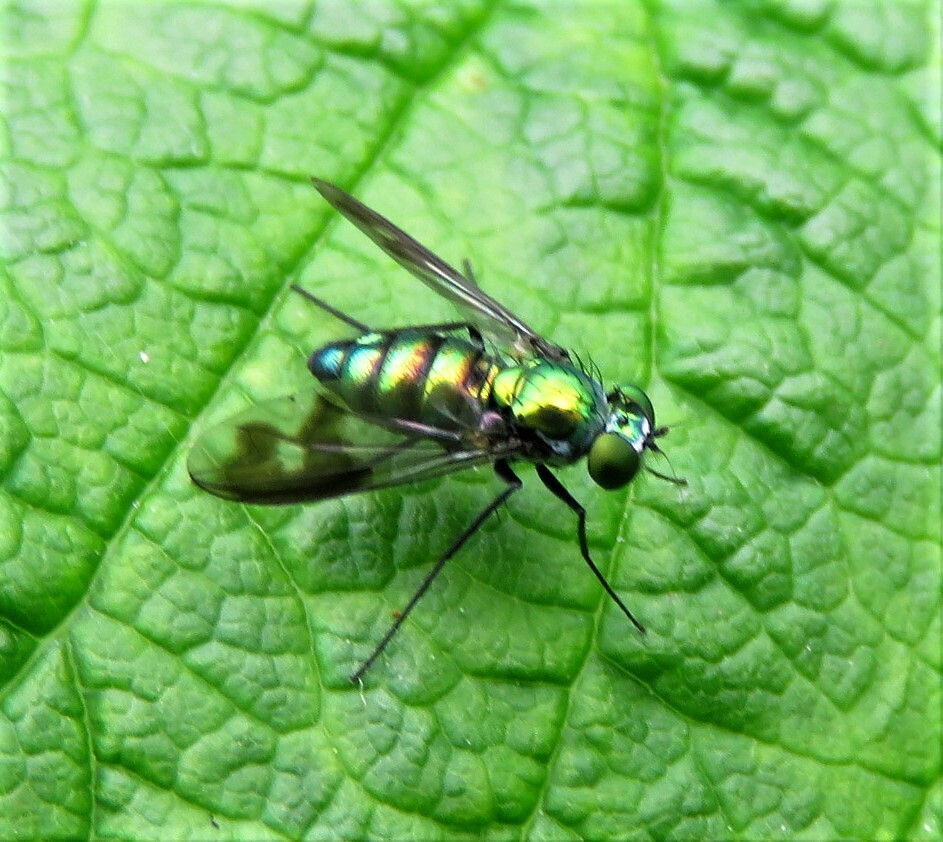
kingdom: Animalia
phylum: Arthropoda
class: Insecta
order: Diptera
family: Dolichopodidae
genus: Condylostylus
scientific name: Condylostylus patibulatus
